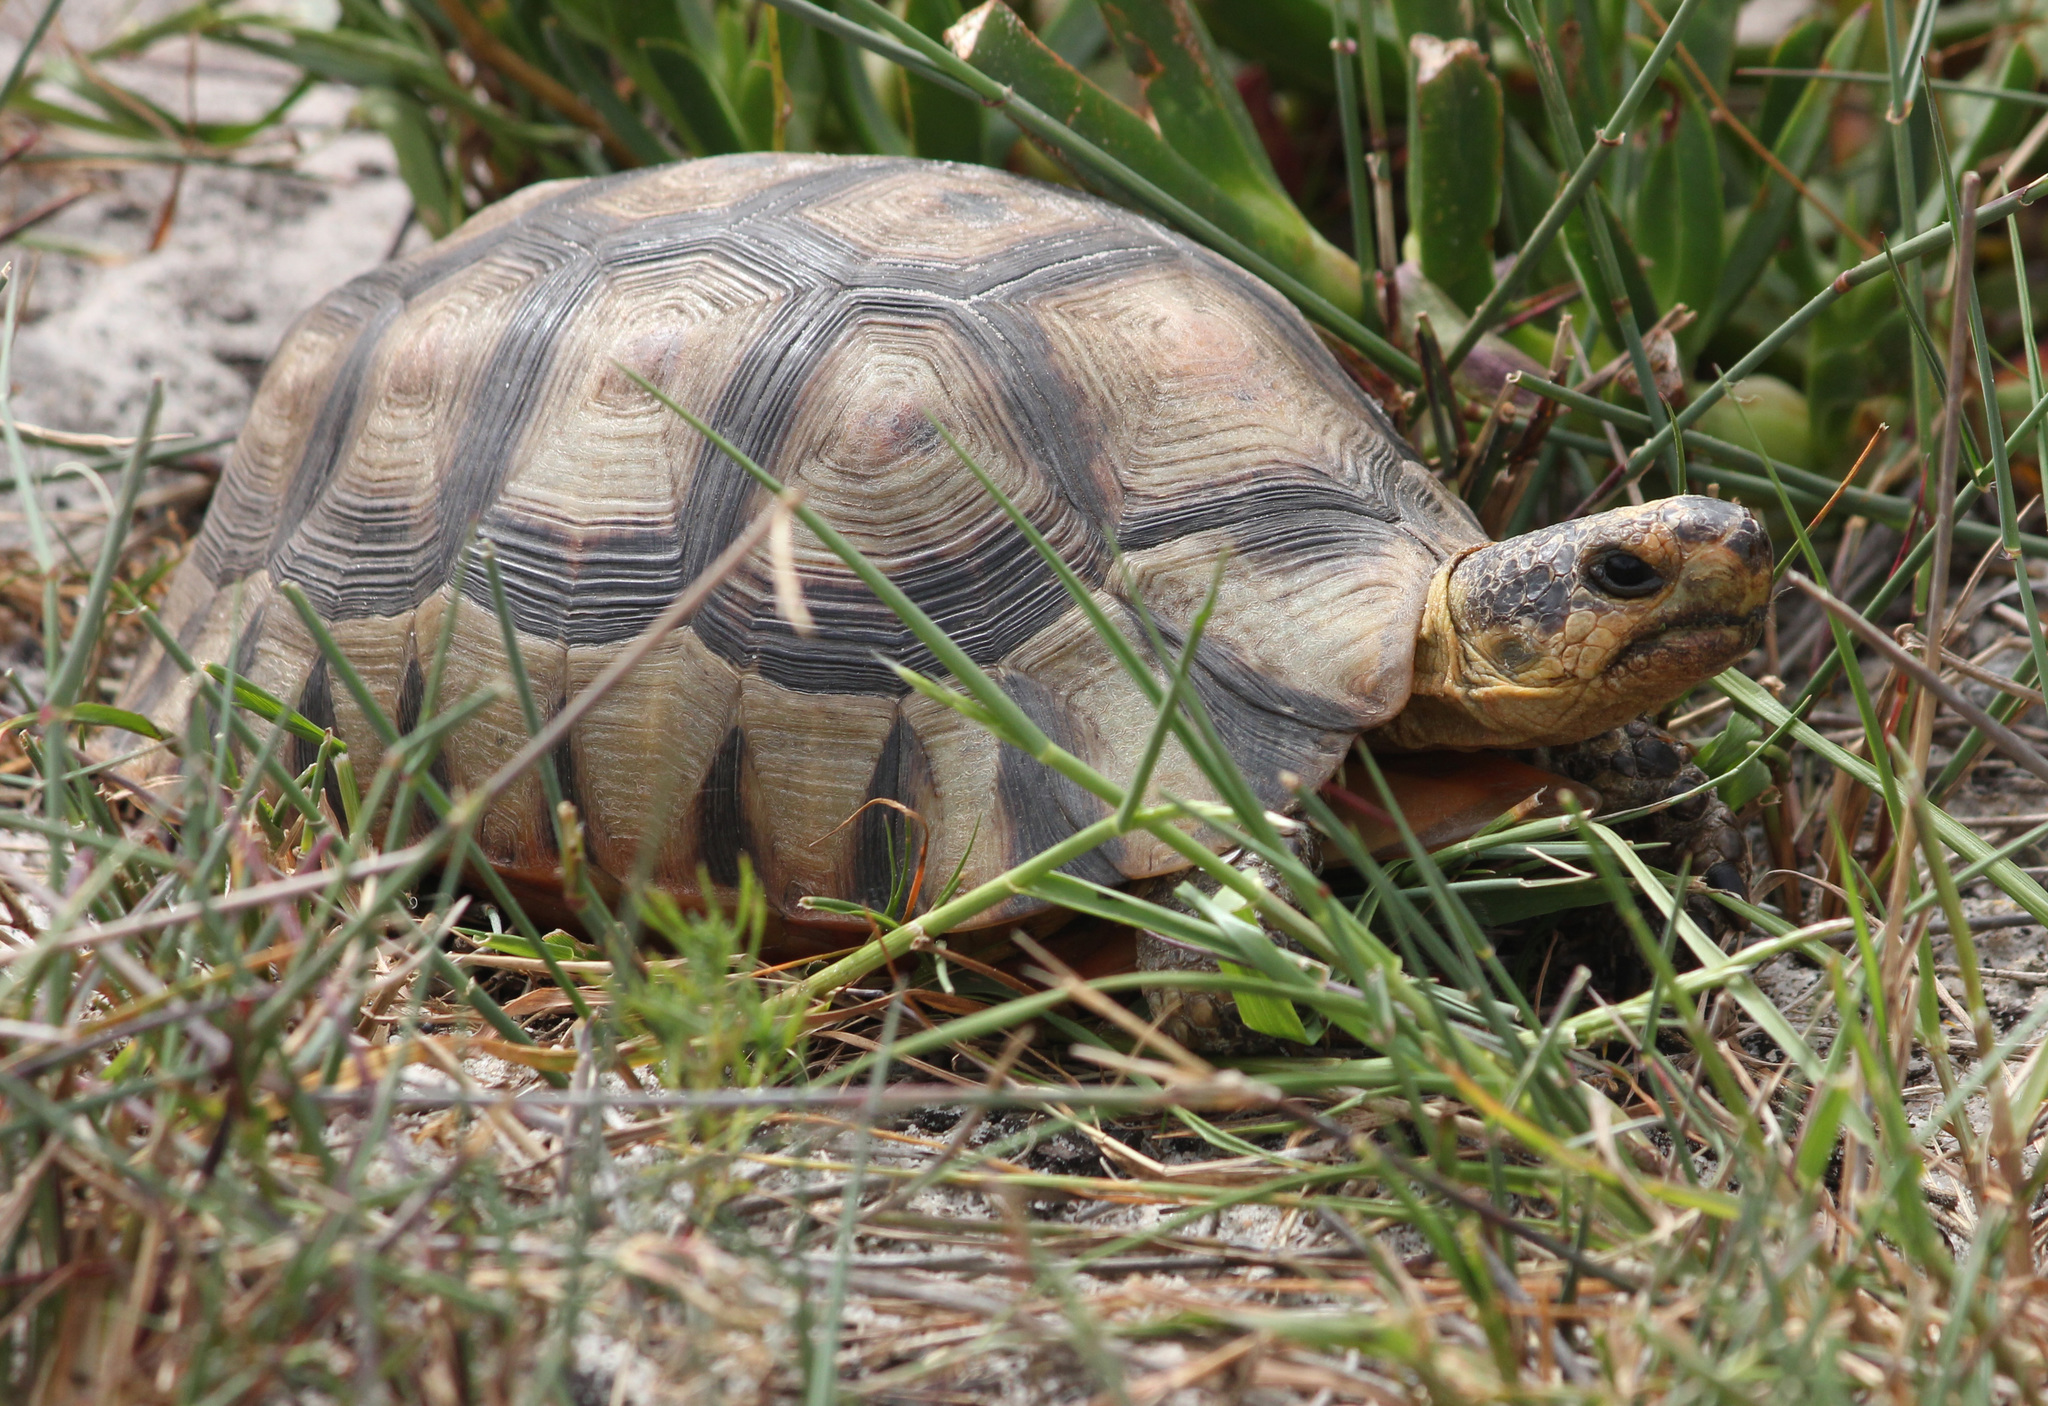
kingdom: Animalia
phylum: Chordata
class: Testudines
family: Testudinidae
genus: Chersina
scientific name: Chersina angulata
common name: South african bowsprit tortoise
